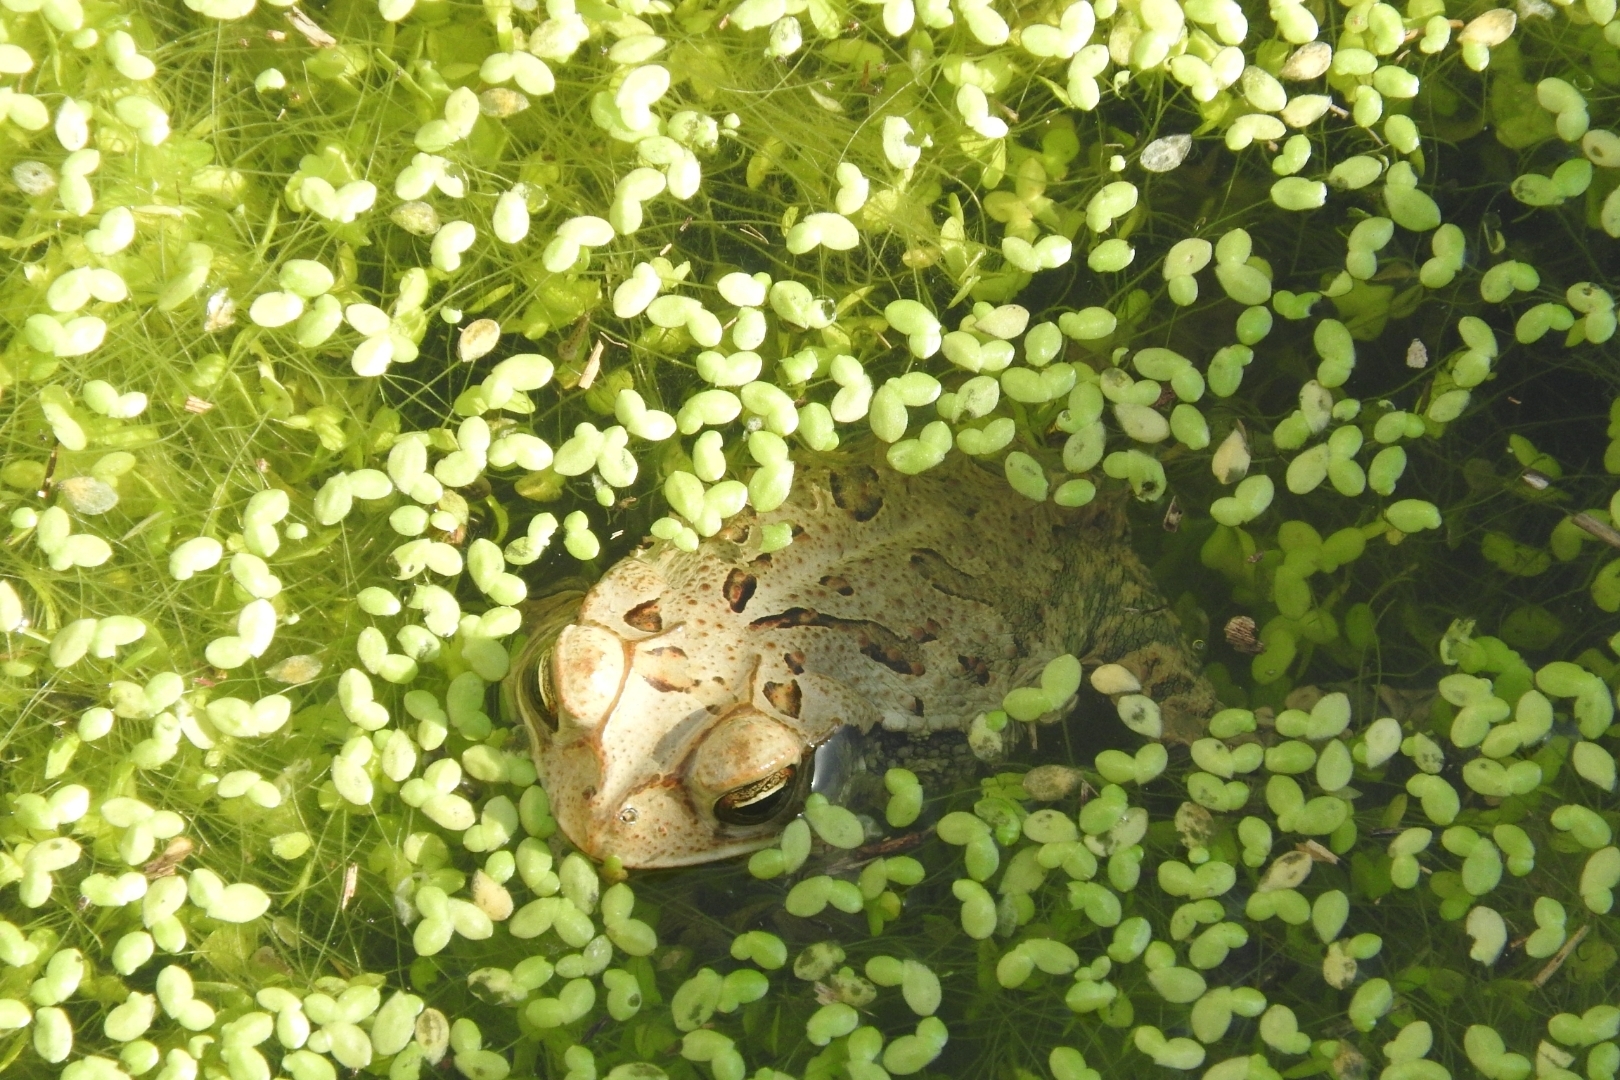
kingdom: Animalia
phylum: Chordata
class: Amphibia
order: Anura
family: Bufonidae
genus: Incilius
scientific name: Incilius valliceps
